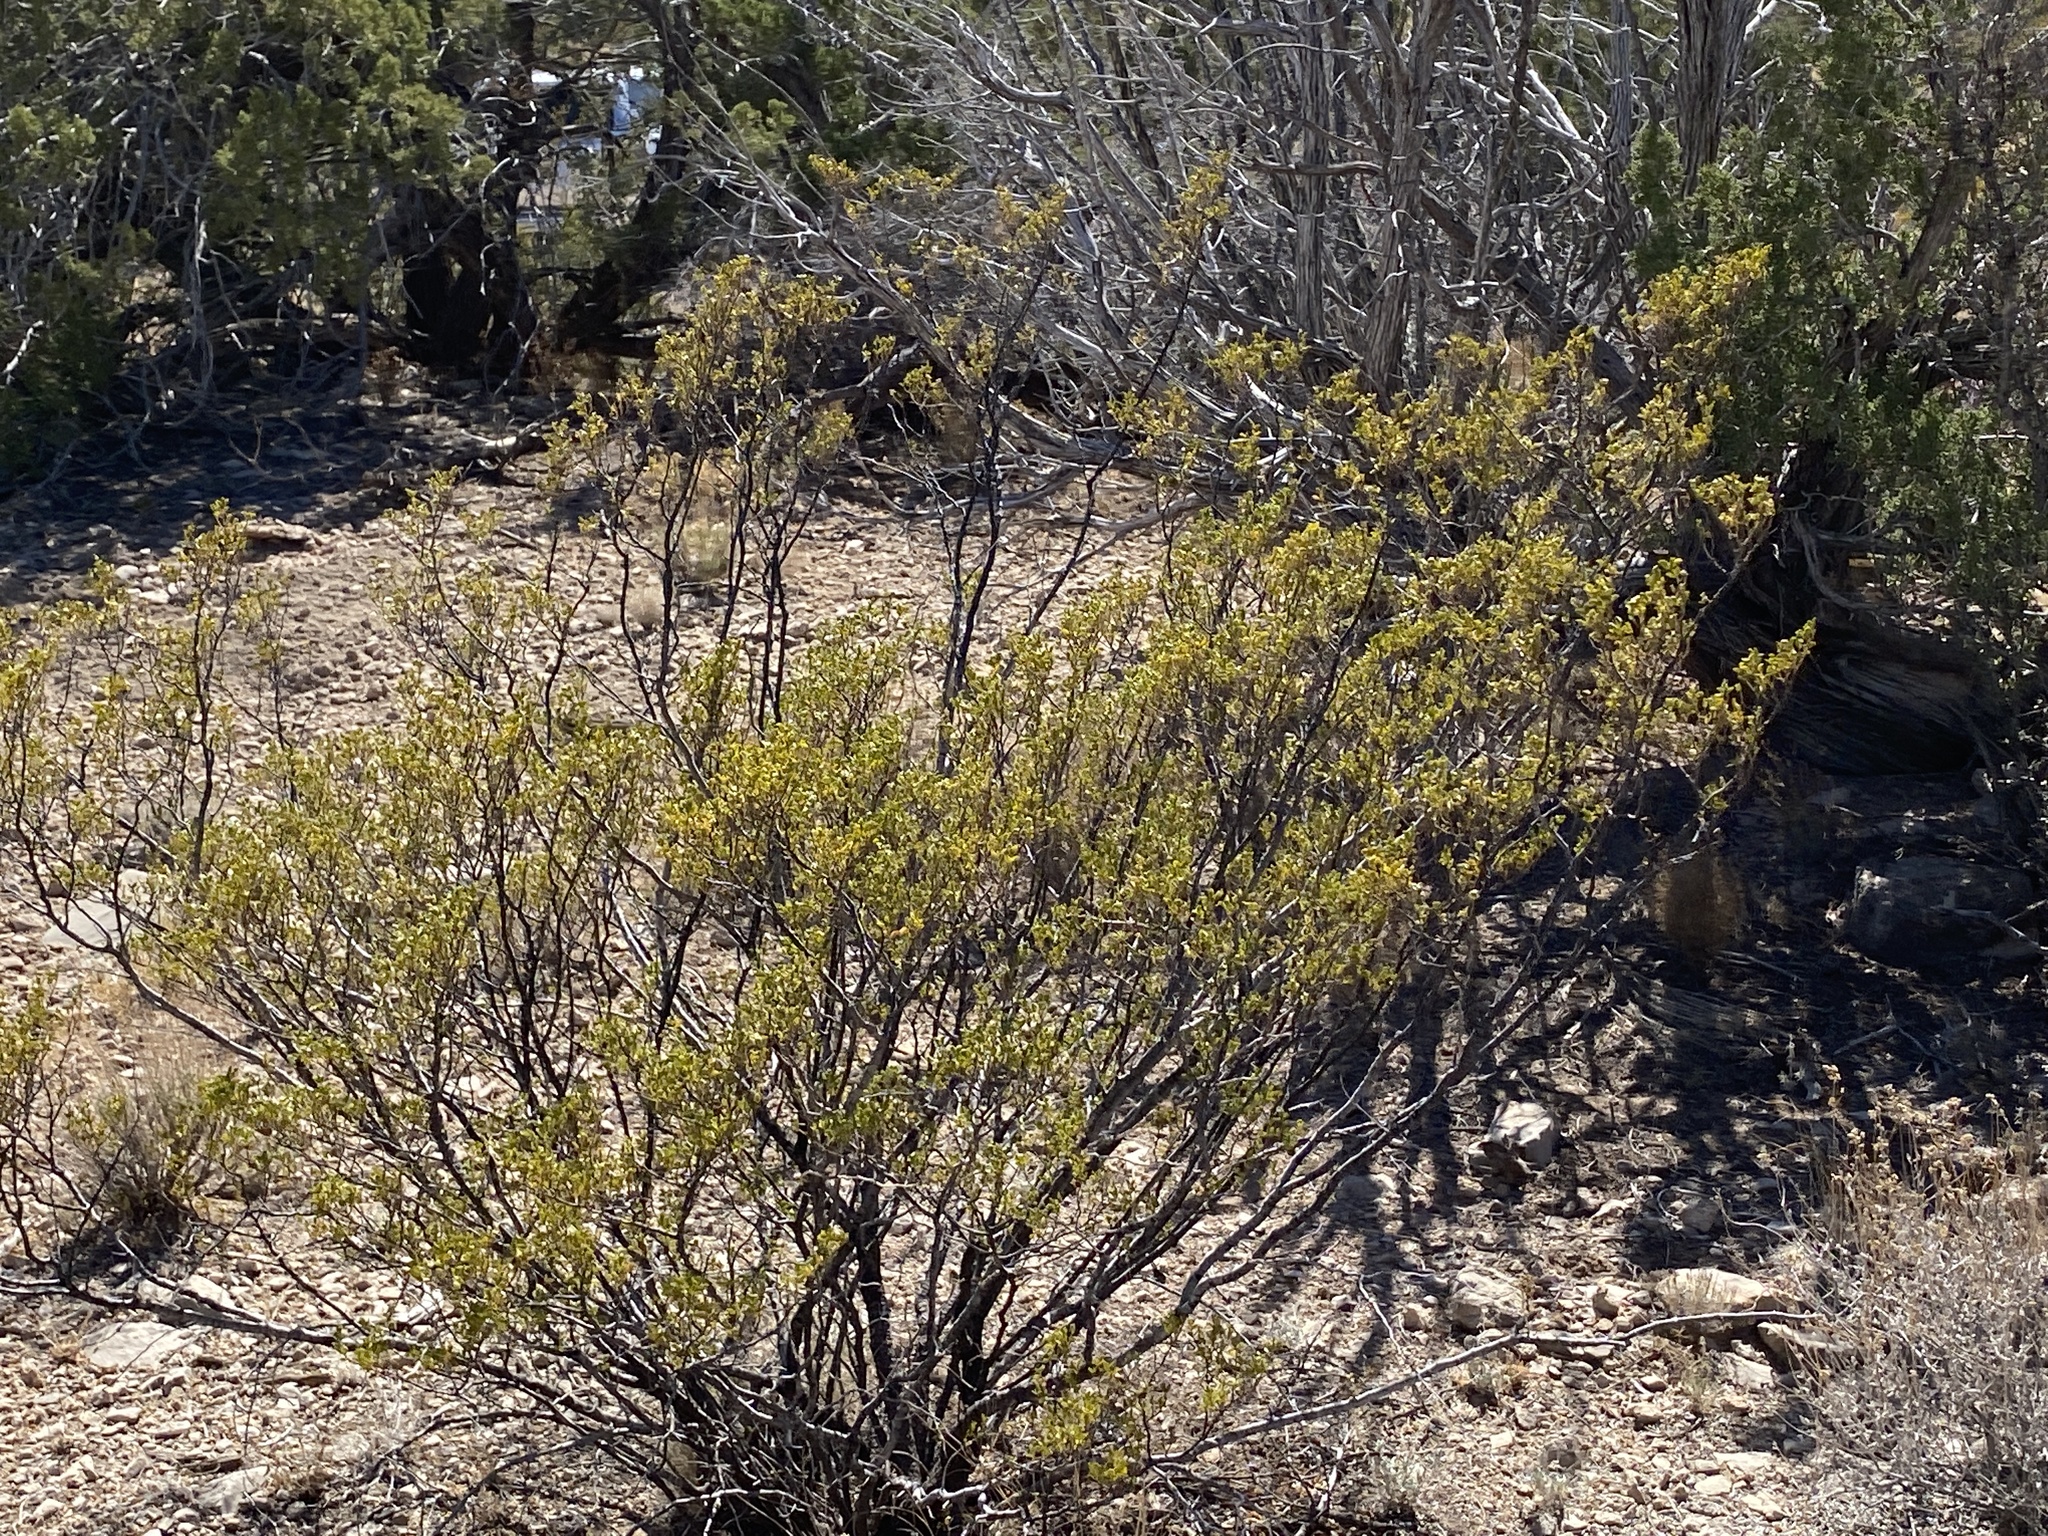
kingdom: Plantae
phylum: Tracheophyta
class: Magnoliopsida
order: Zygophyllales
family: Zygophyllaceae
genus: Larrea
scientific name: Larrea tridentata
